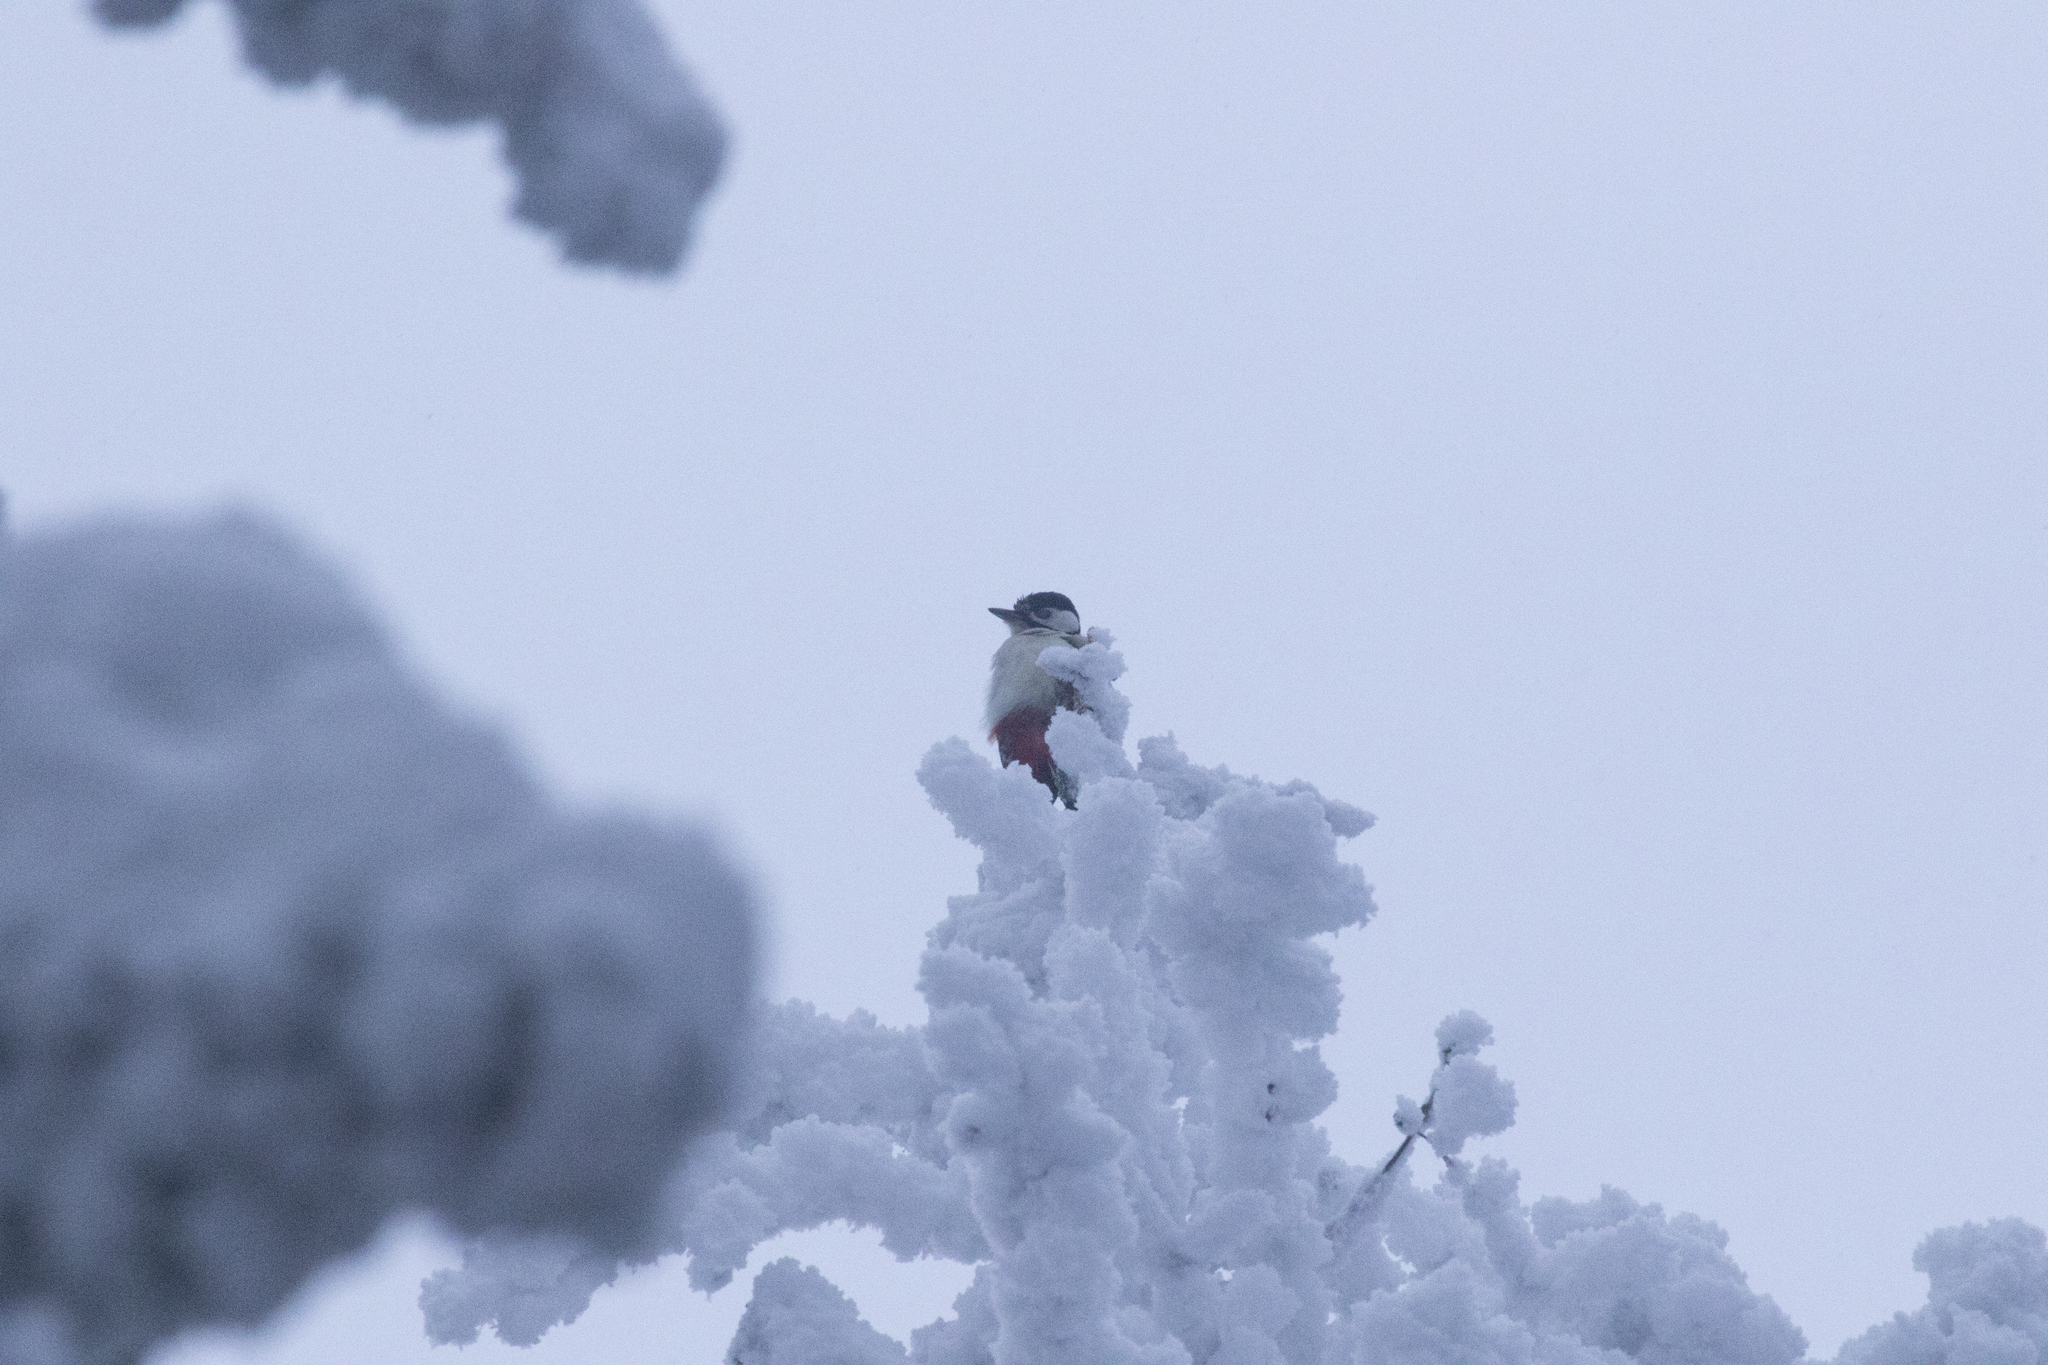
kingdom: Animalia
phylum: Chordata
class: Aves
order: Piciformes
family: Picidae
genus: Dendrocopos
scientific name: Dendrocopos major
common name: Great spotted woodpecker
